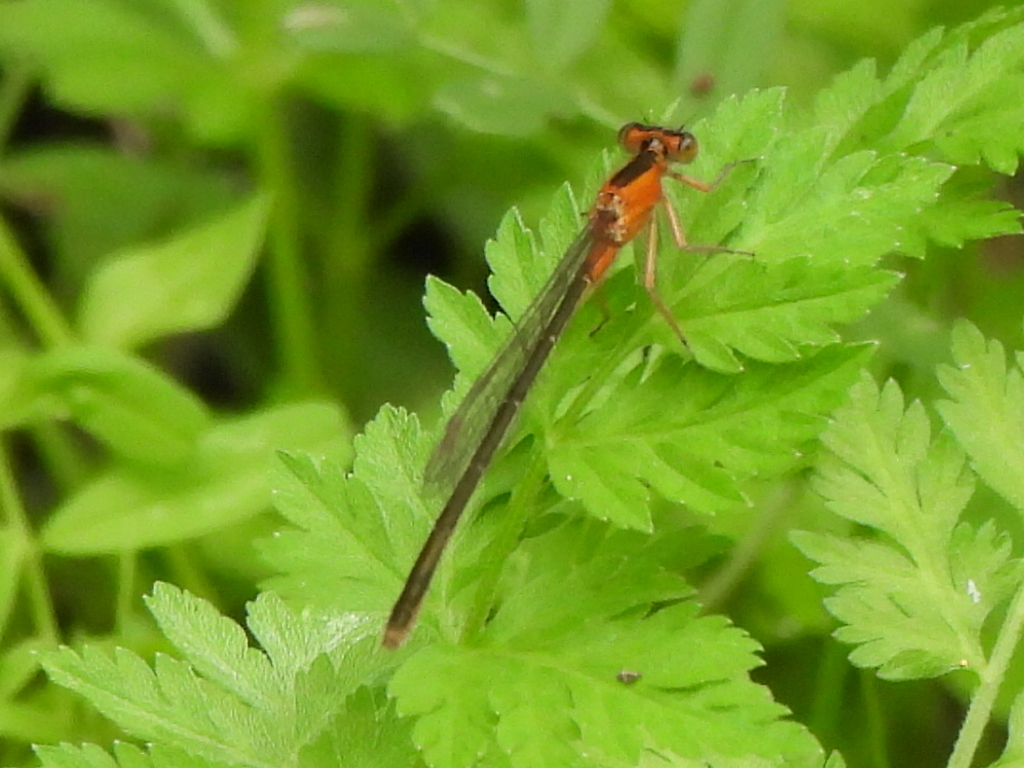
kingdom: Animalia
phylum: Arthropoda
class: Insecta
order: Odonata
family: Coenagrionidae
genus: Ischnura
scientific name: Ischnura ramburii
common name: Rambur's forktail
